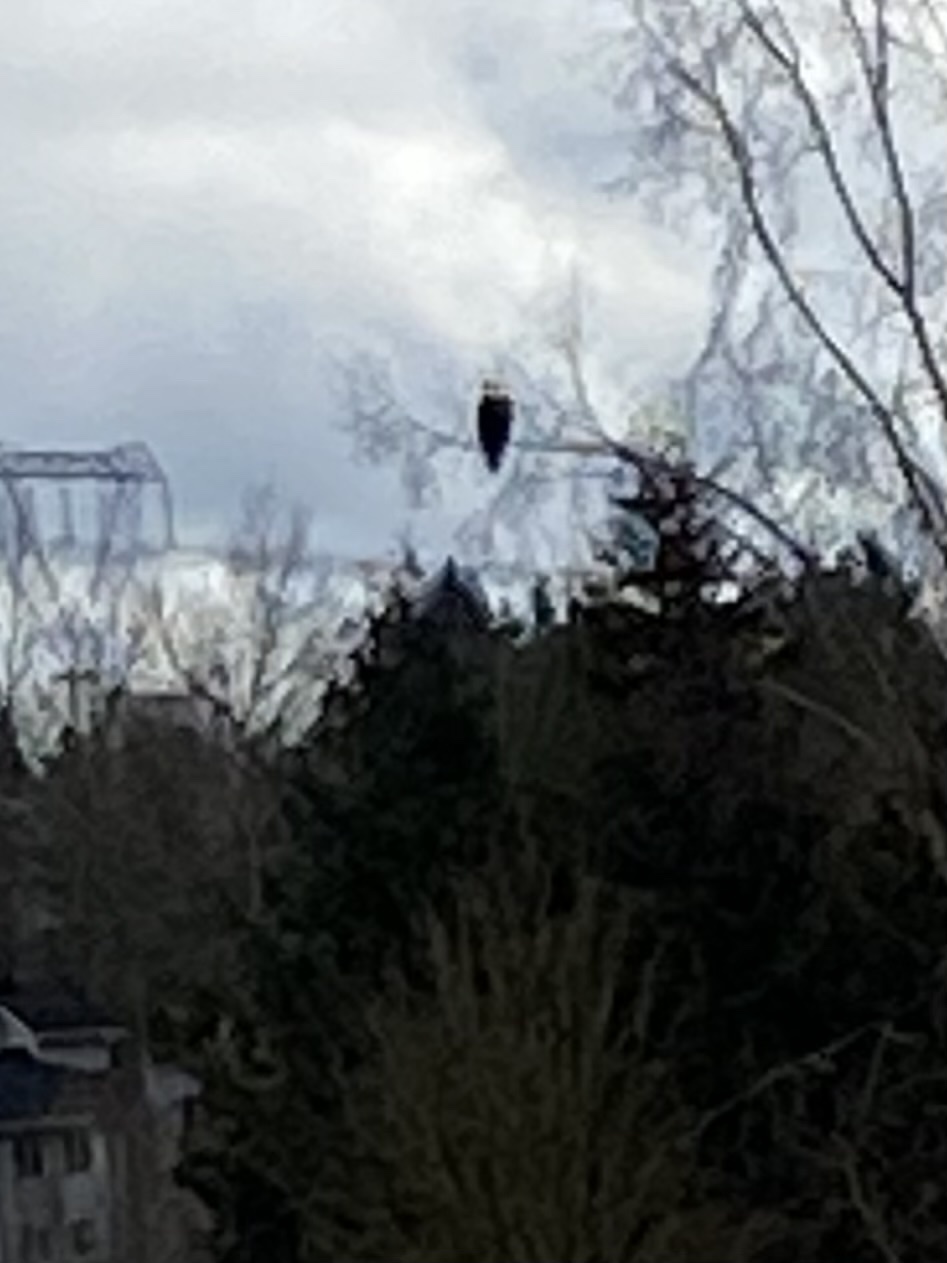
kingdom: Animalia
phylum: Chordata
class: Aves
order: Accipitriformes
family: Accipitridae
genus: Haliaeetus
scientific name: Haliaeetus leucocephalus
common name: Bald eagle
